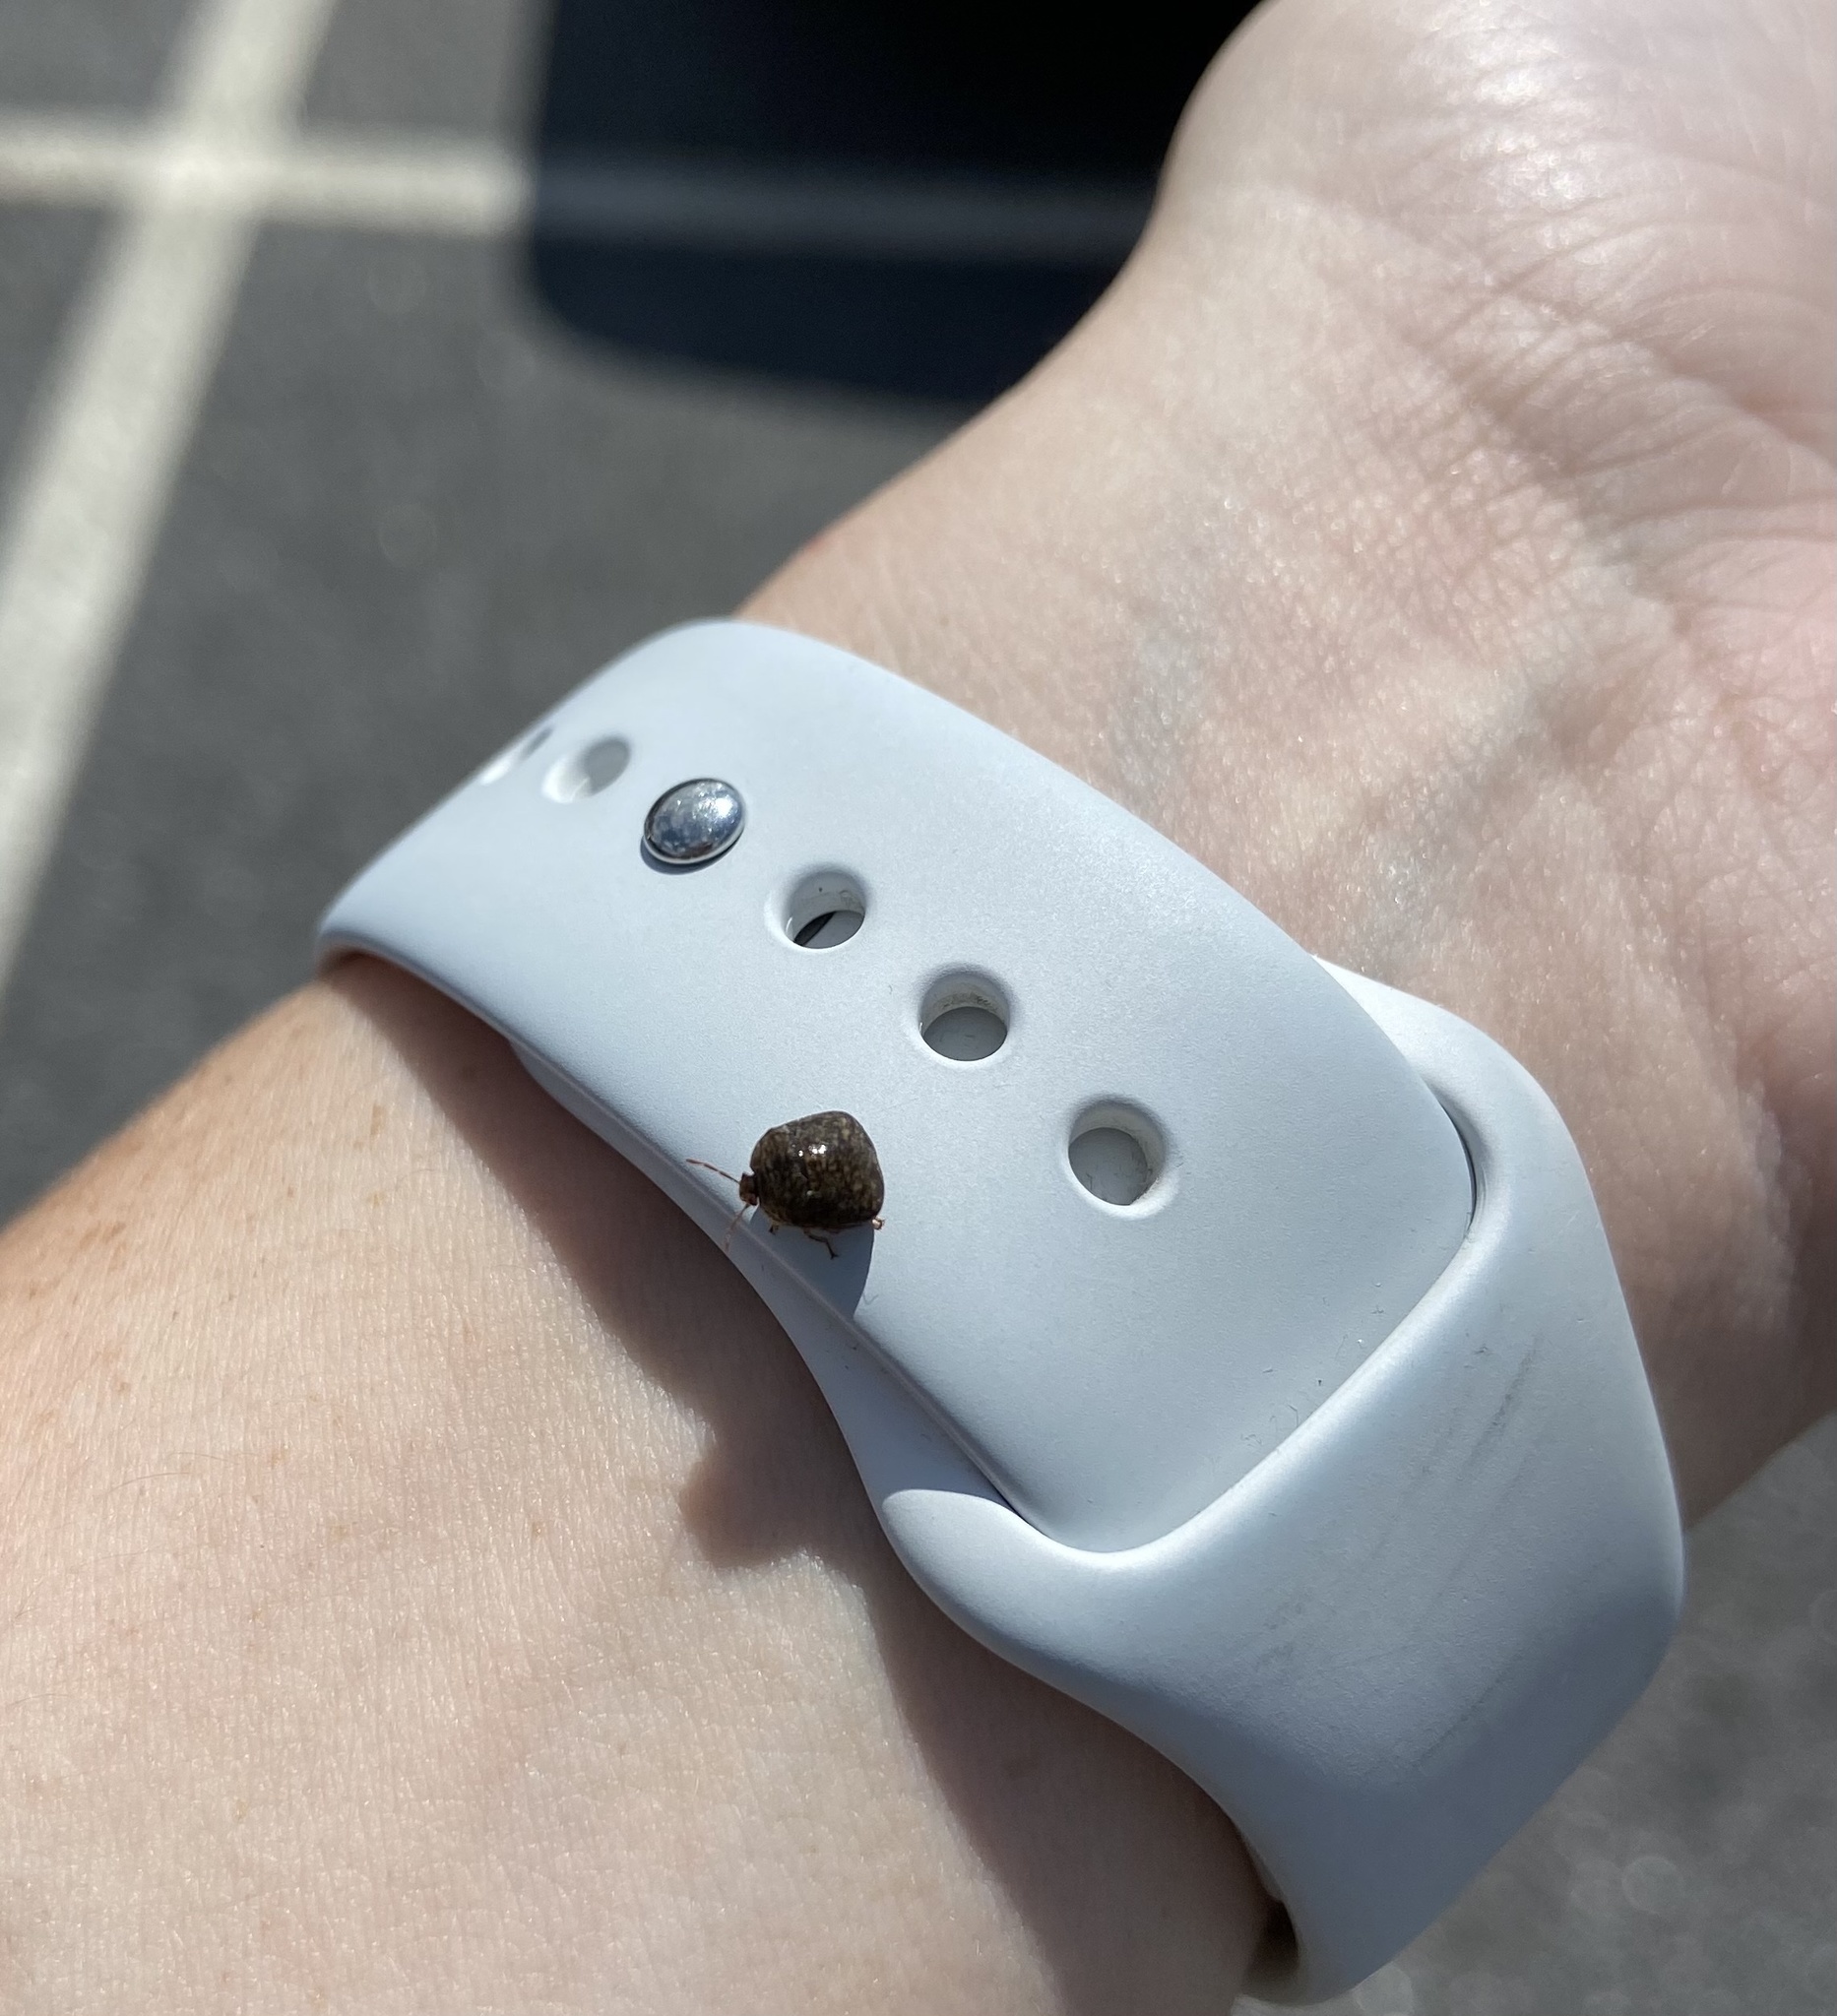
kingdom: Animalia
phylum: Arthropoda
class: Insecta
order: Hemiptera
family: Plataspidae
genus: Megacopta
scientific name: Megacopta cribraria
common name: Bean plataspid
